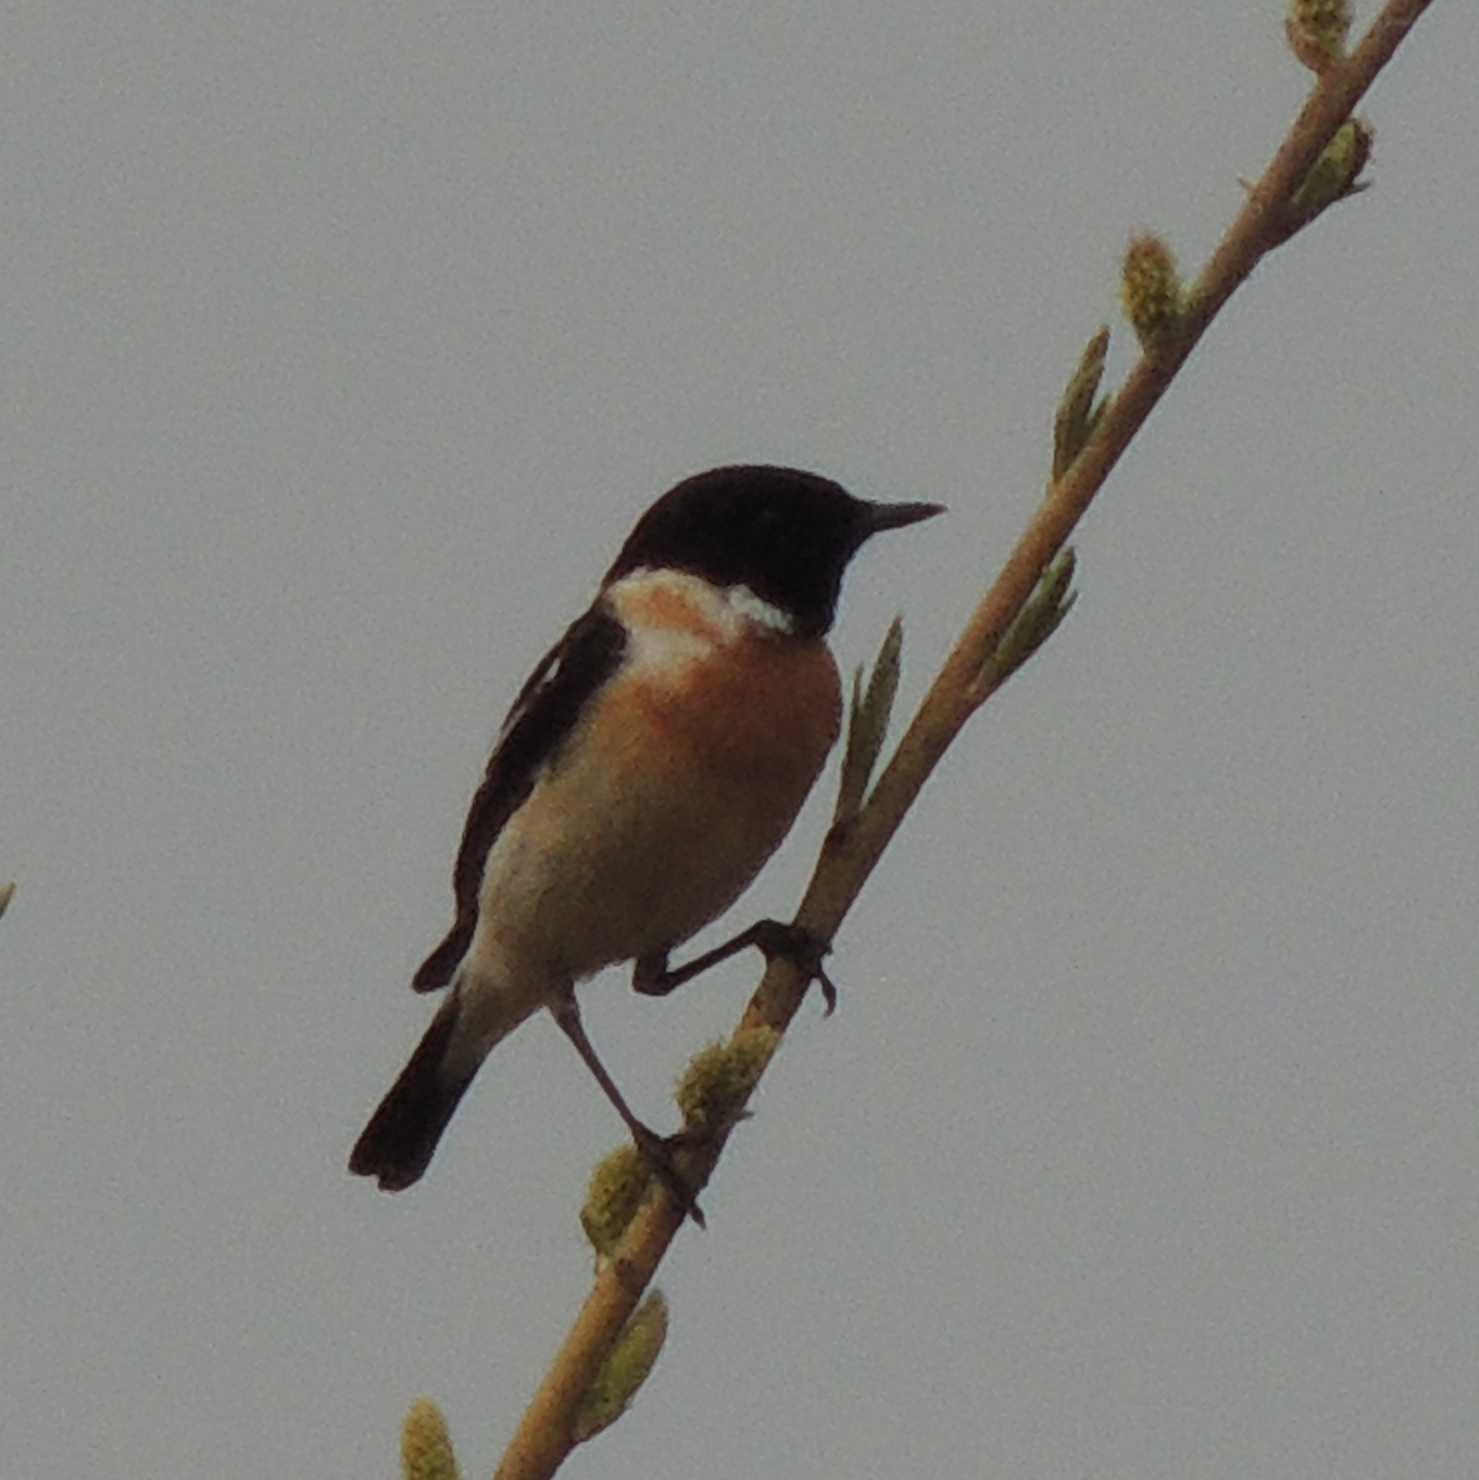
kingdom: Animalia
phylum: Chordata
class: Aves
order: Passeriformes
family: Muscicapidae
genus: Saxicola
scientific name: Saxicola maurus
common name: Siberian stonechat
